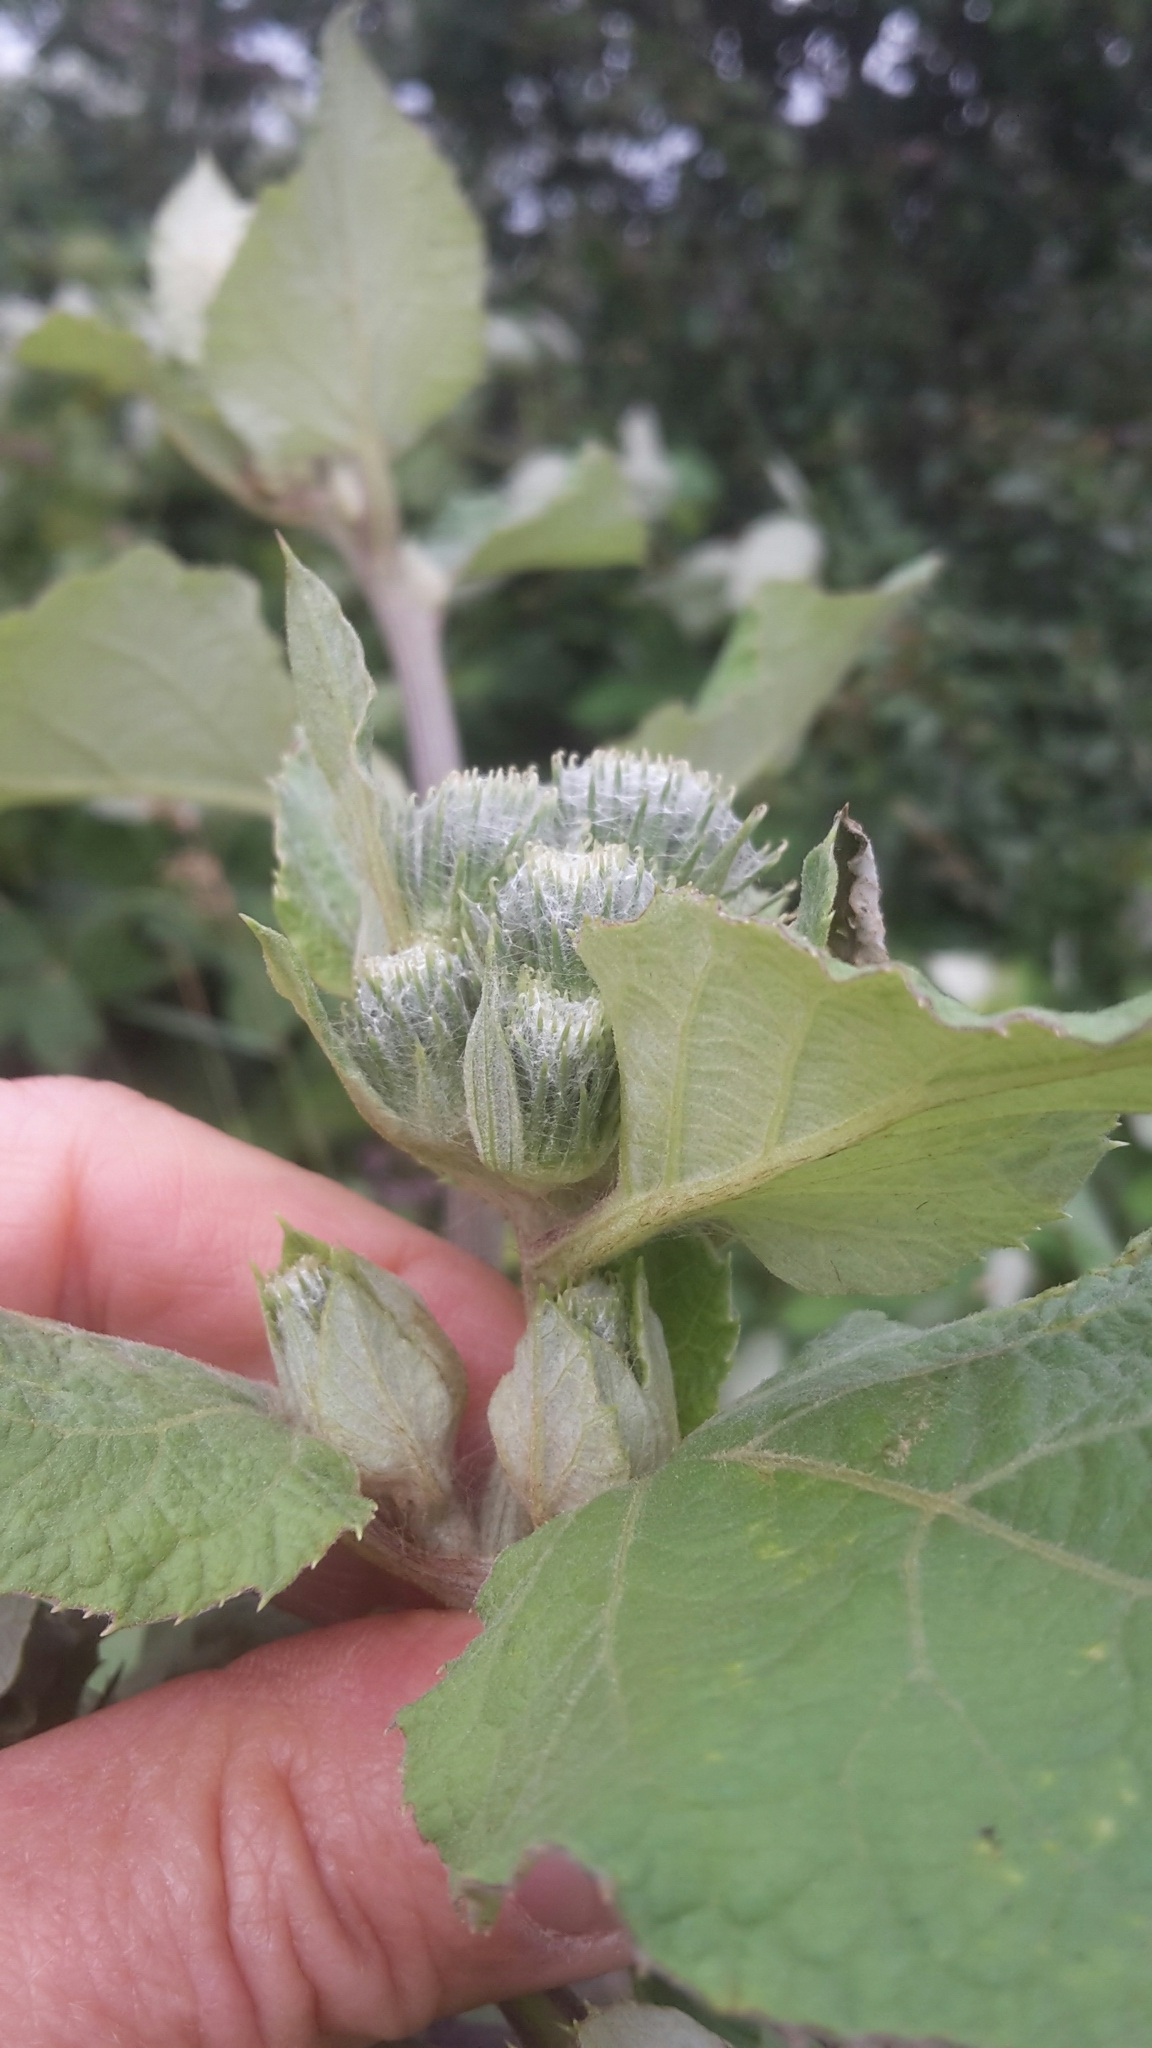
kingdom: Plantae
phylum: Tracheophyta
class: Magnoliopsida
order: Asterales
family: Asteraceae
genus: Arctium
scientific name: Arctium tomentosum
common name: Woolly burdock
